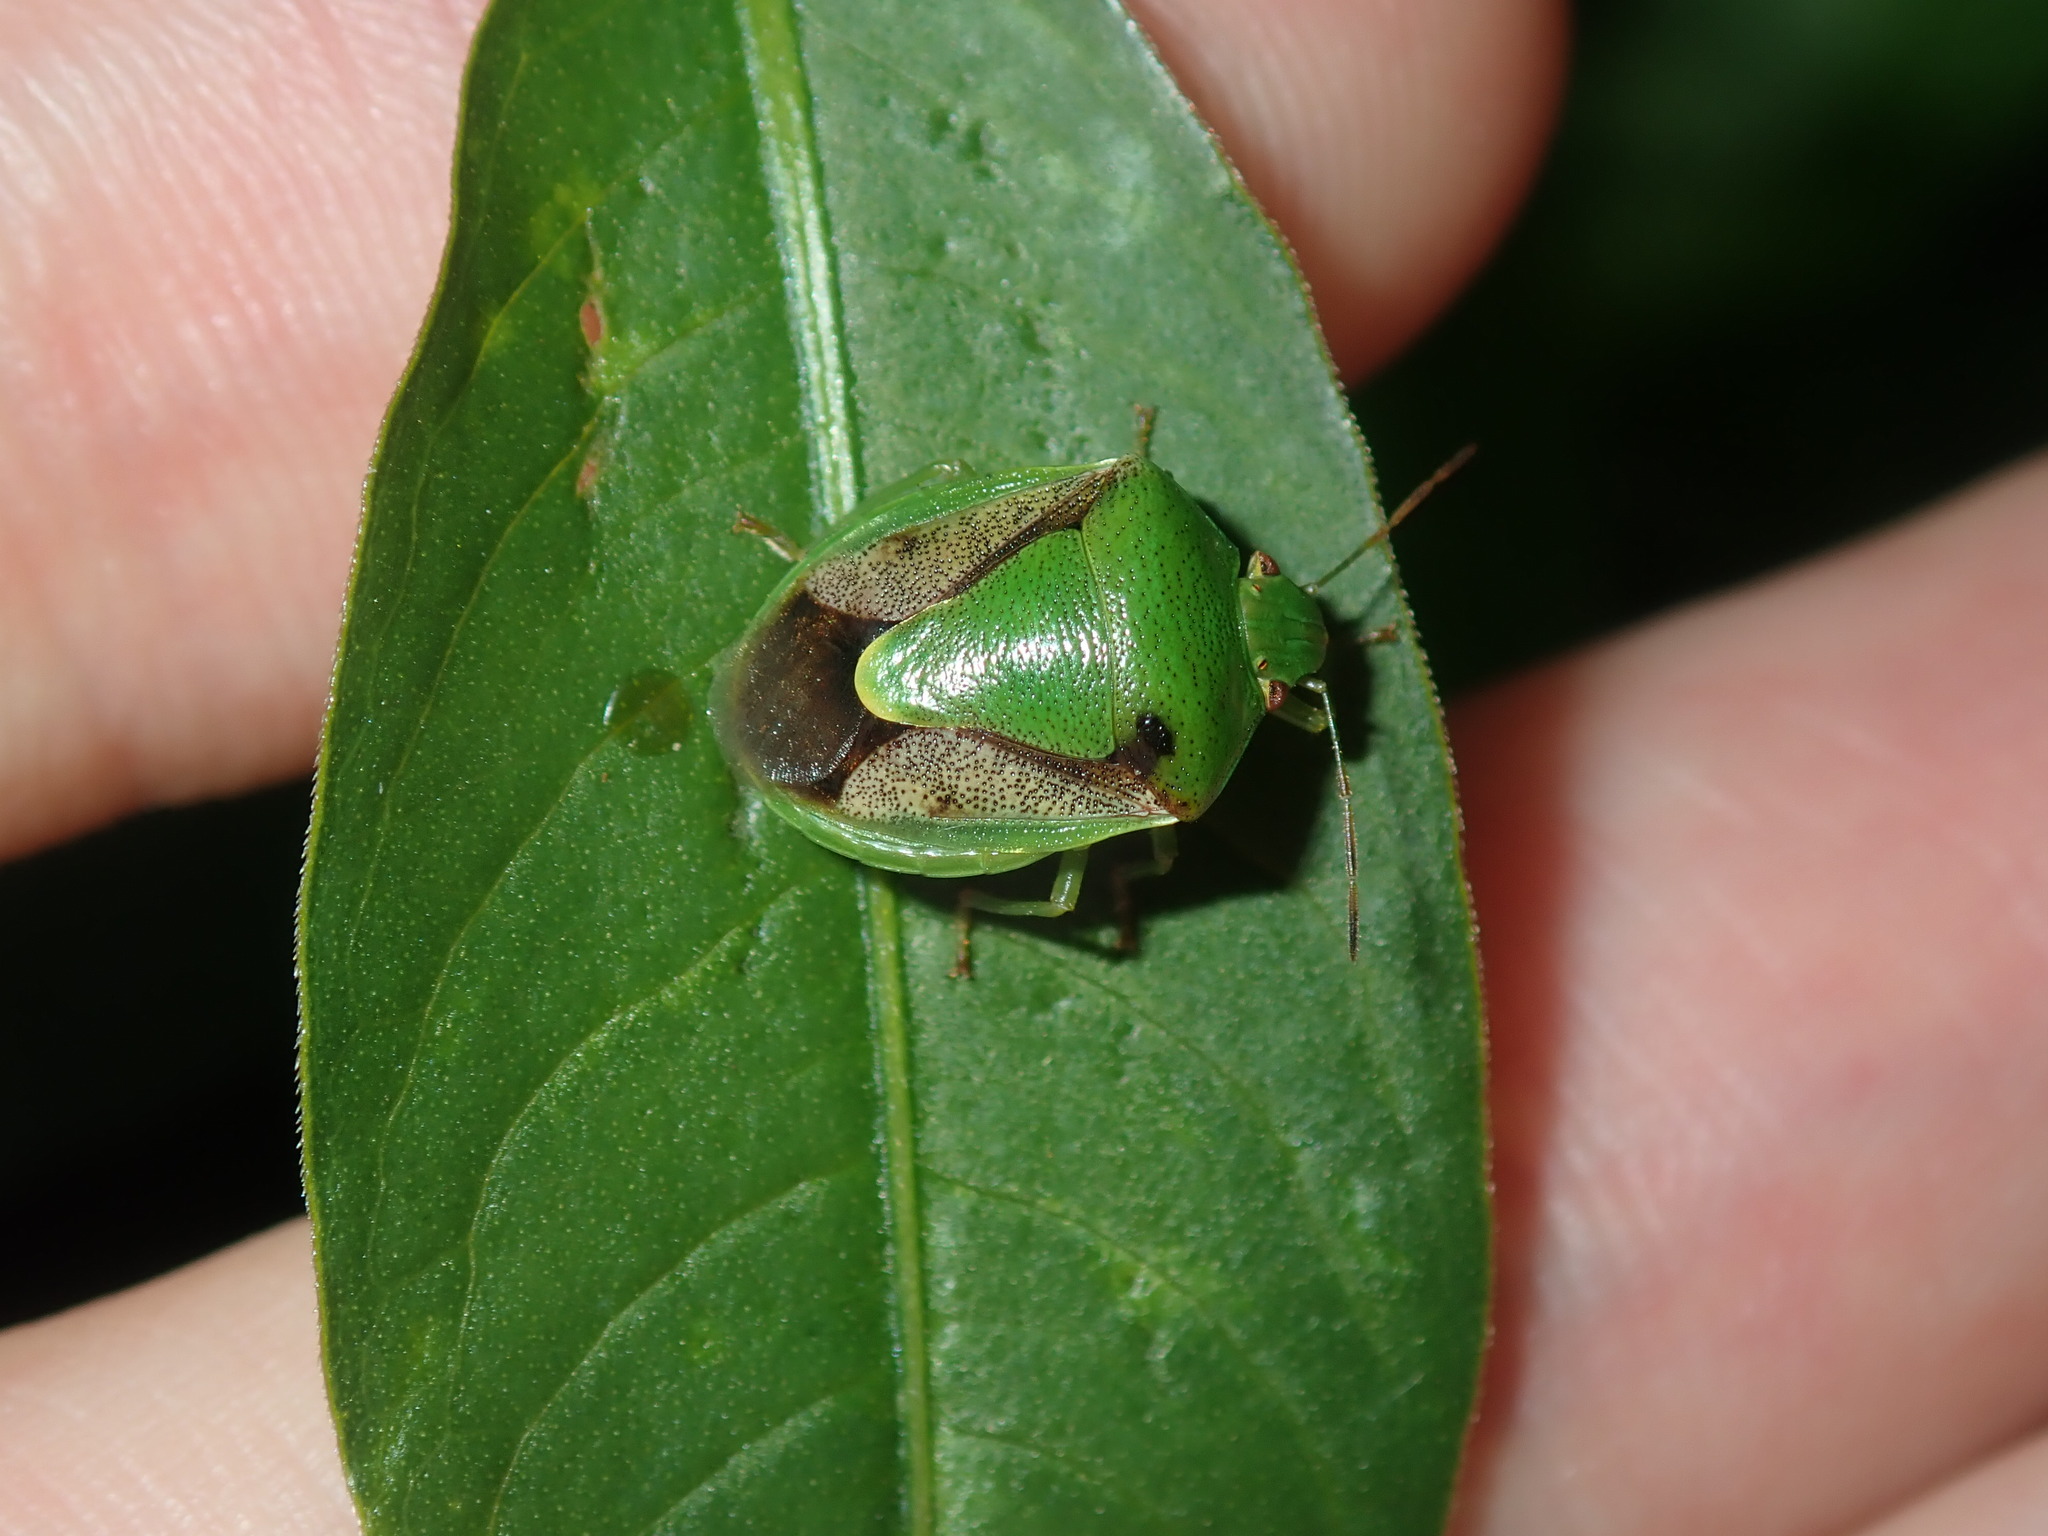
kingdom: Animalia
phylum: Arthropoda
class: Insecta
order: Hemiptera
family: Pentatomidae
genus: Plautia
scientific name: Plautia affinis
